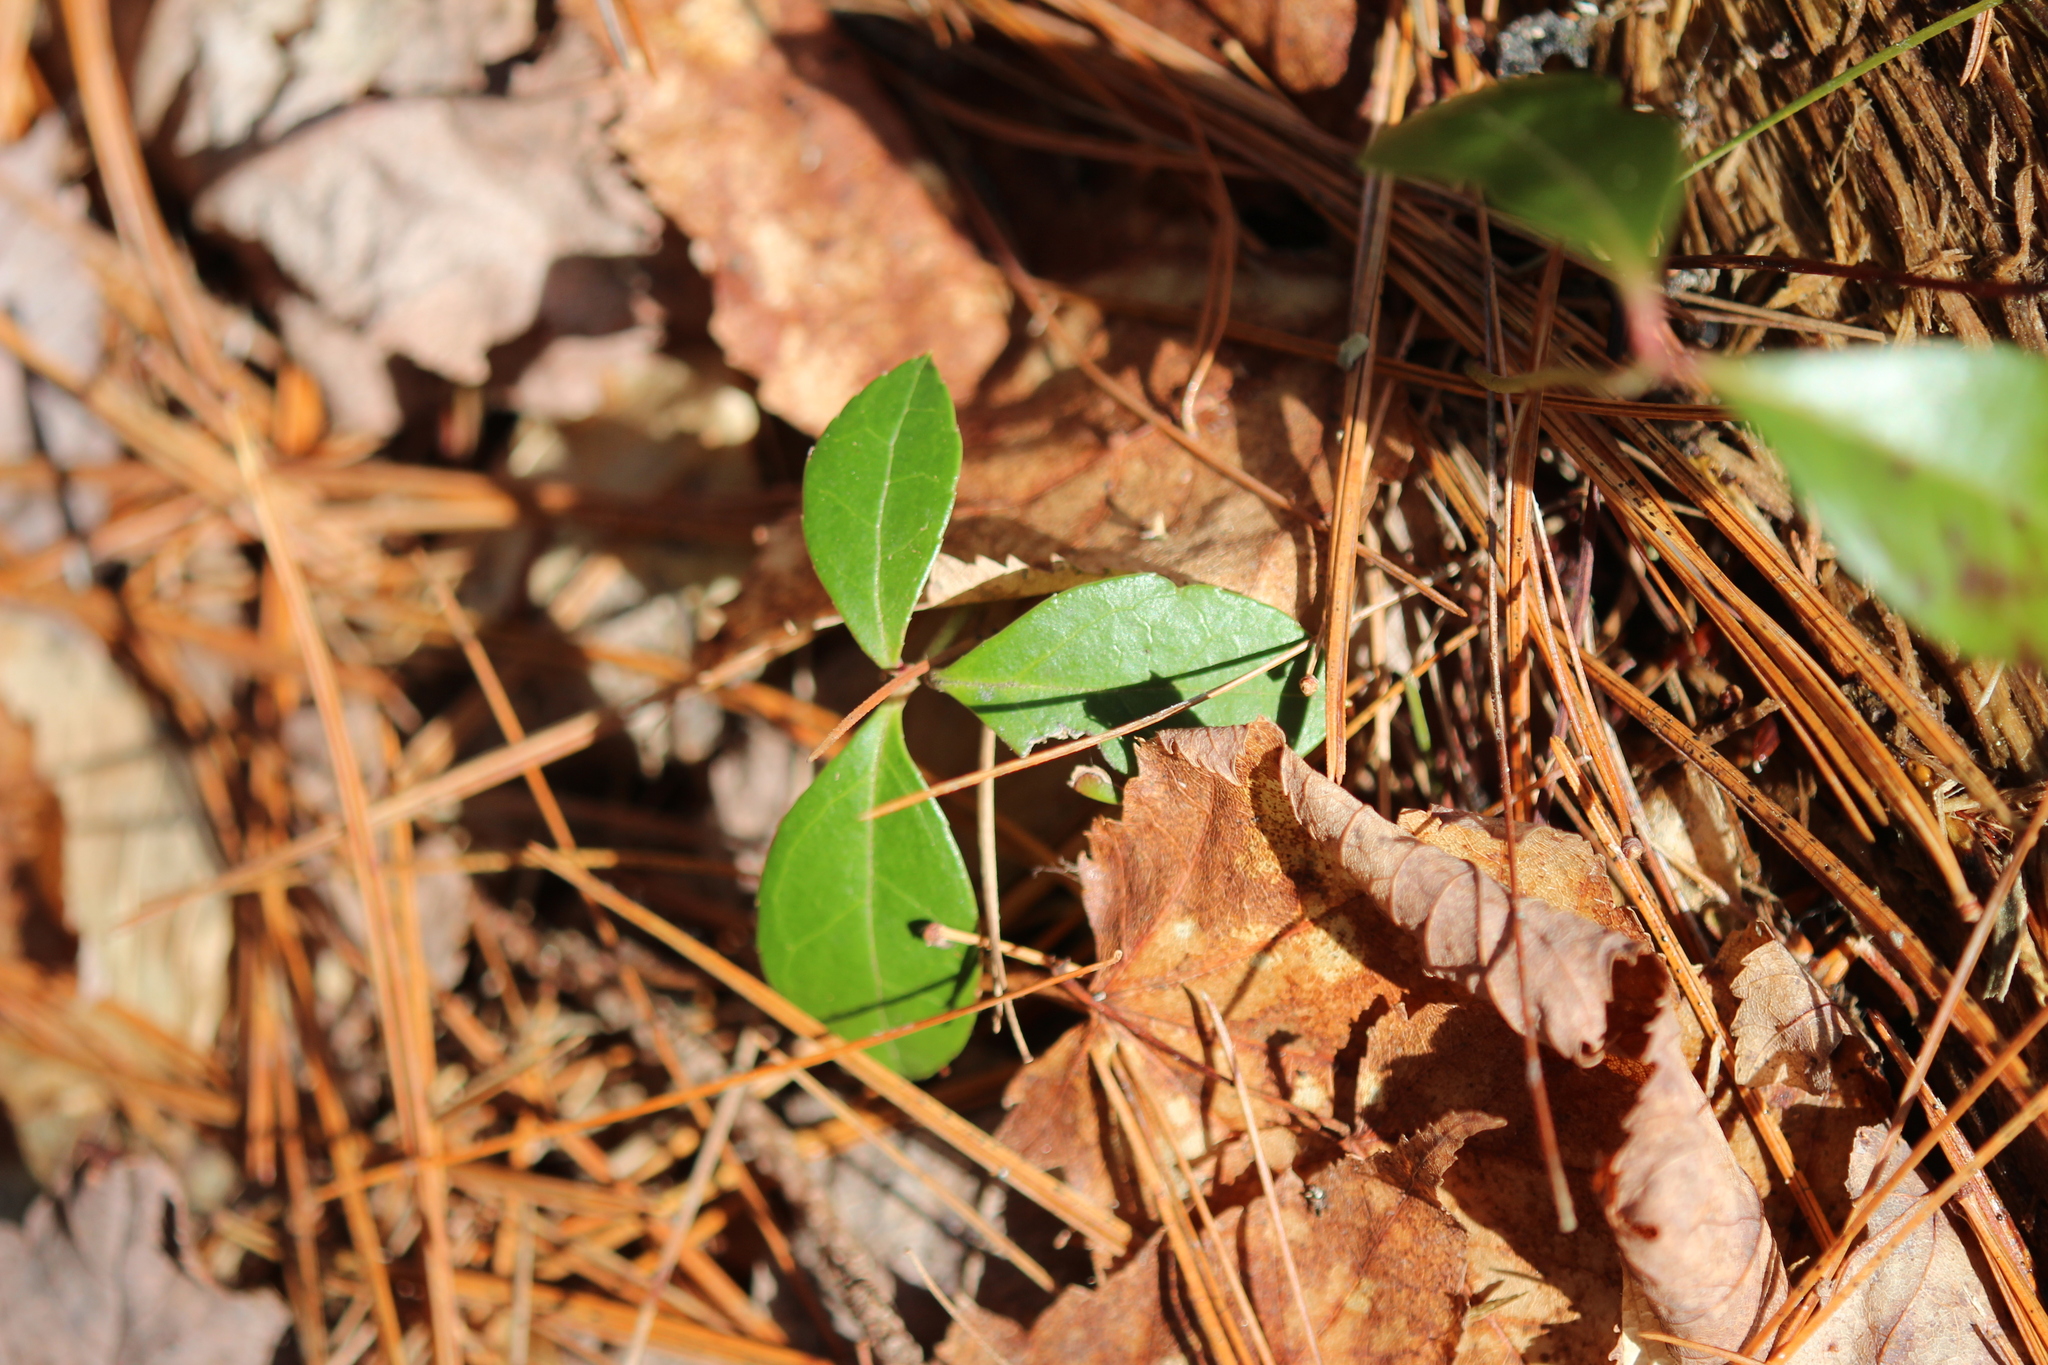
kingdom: Plantae
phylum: Tracheophyta
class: Magnoliopsida
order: Ericales
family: Ericaceae
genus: Gaultheria
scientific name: Gaultheria procumbens
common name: Checkerberry
